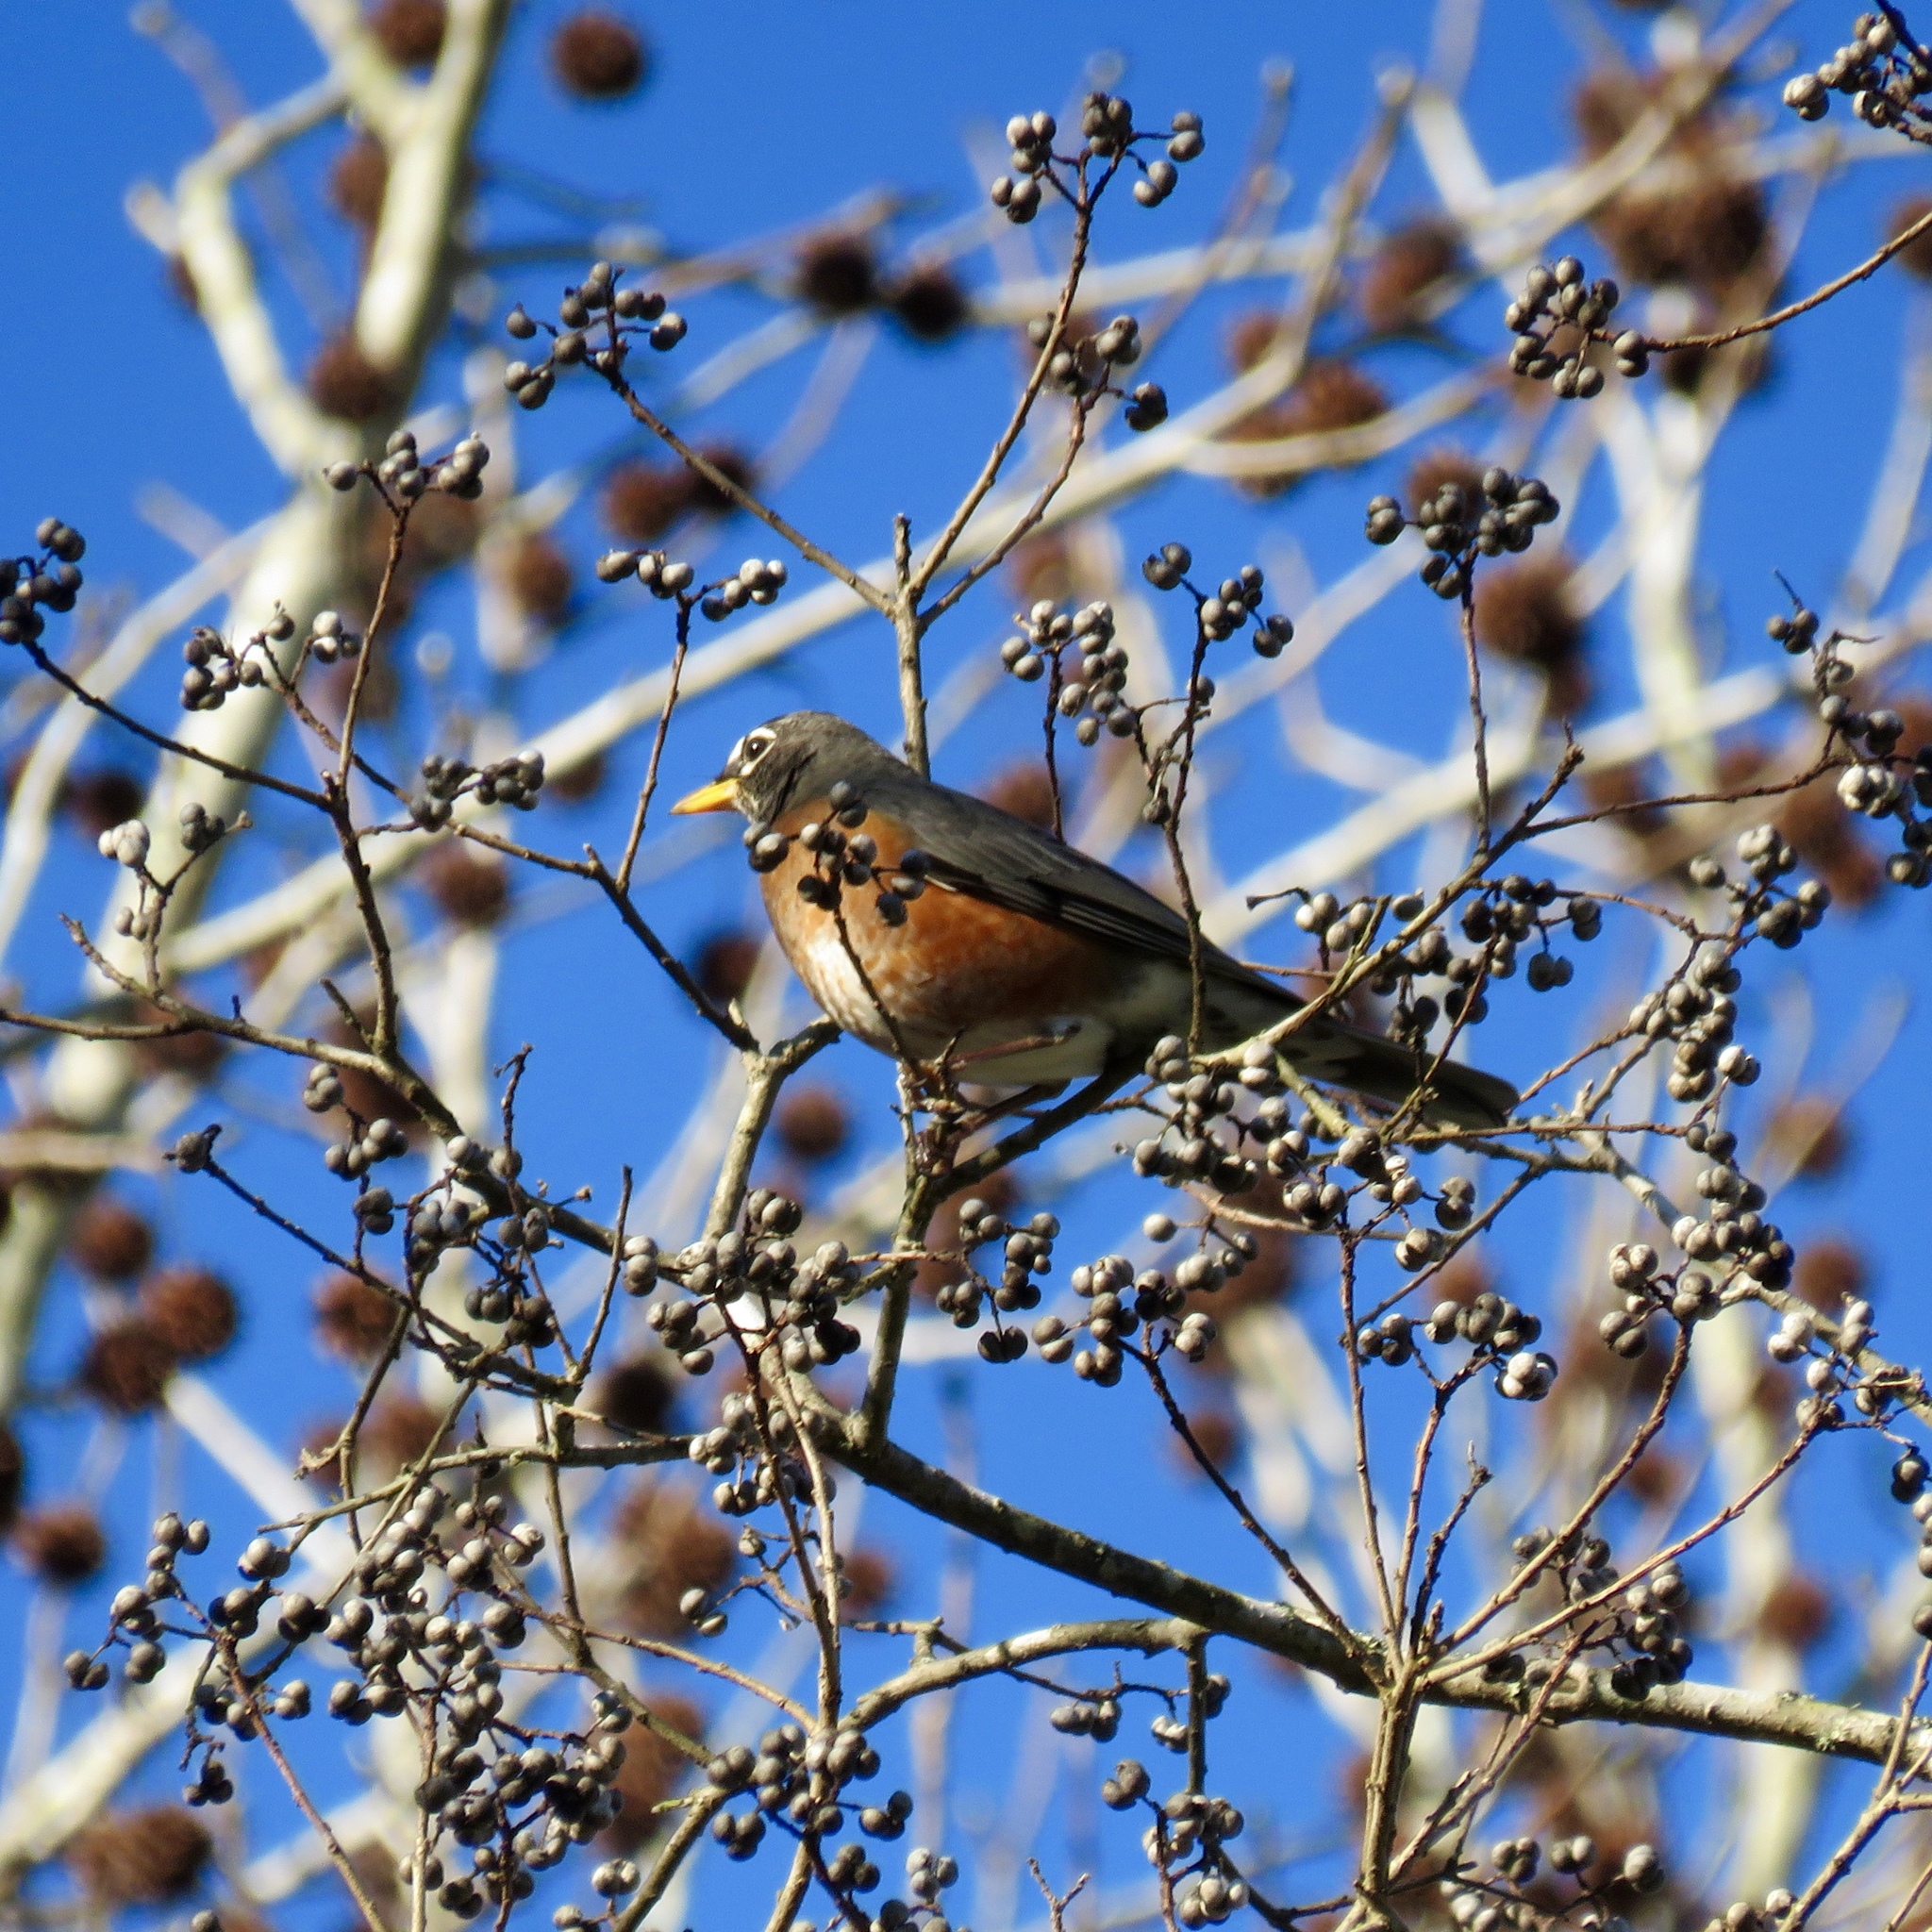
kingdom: Animalia
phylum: Chordata
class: Aves
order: Passeriformes
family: Turdidae
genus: Turdus
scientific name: Turdus migratorius
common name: American robin
